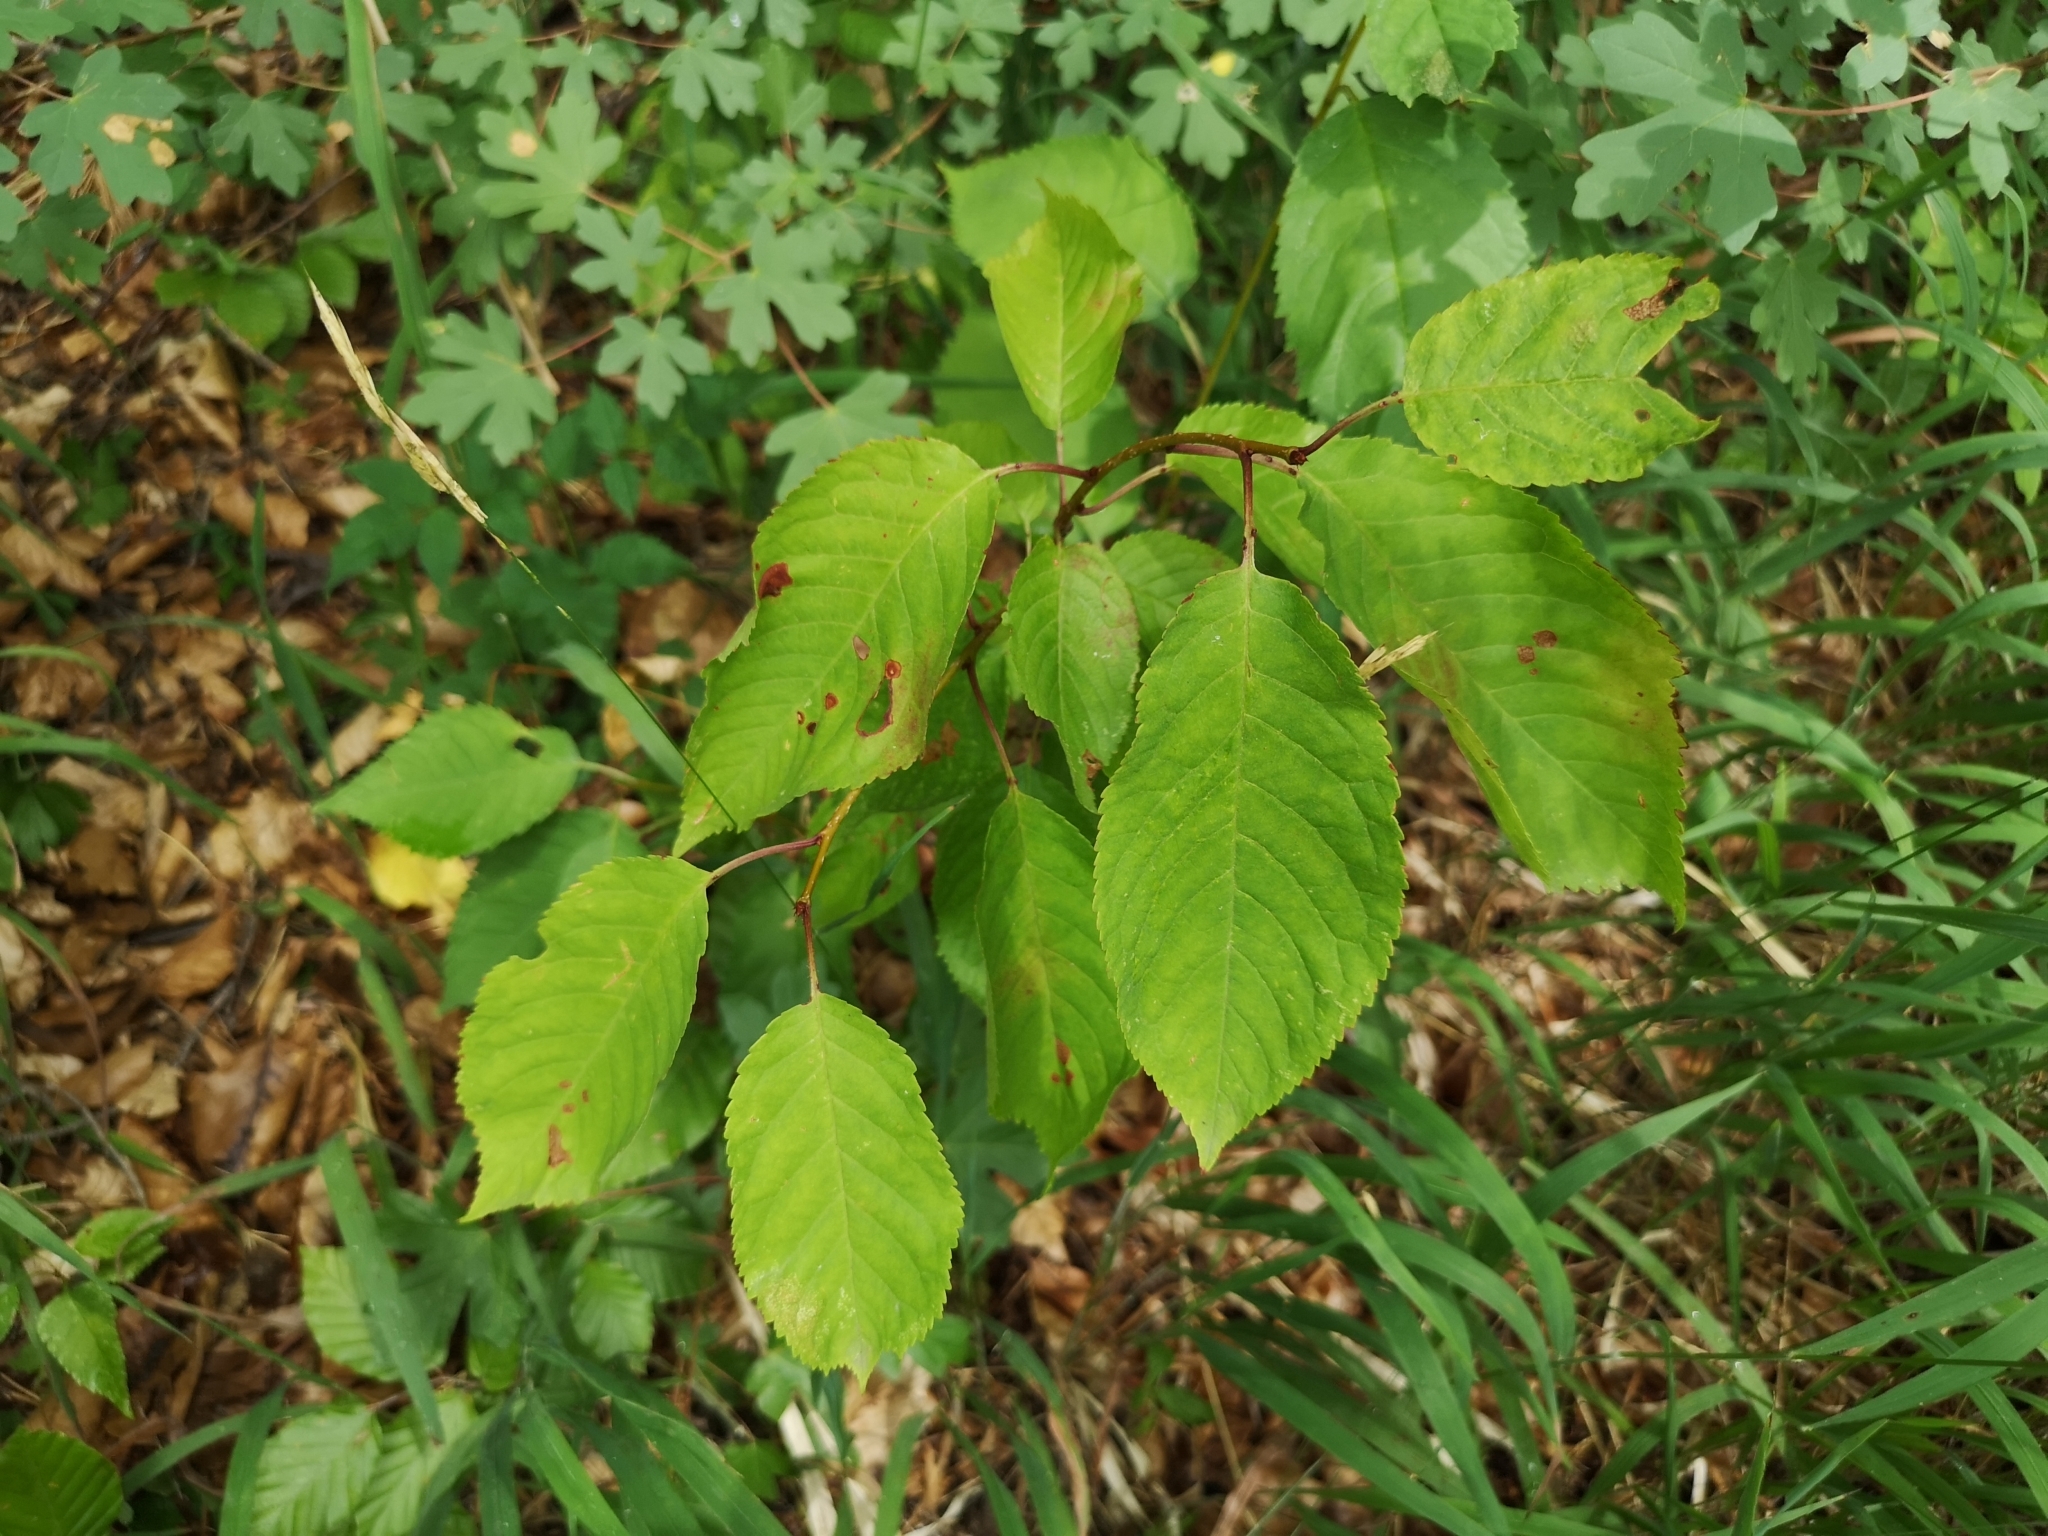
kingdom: Plantae
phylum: Tracheophyta
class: Magnoliopsida
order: Rosales
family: Rosaceae
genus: Prunus
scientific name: Prunus avium
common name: Sweet cherry
